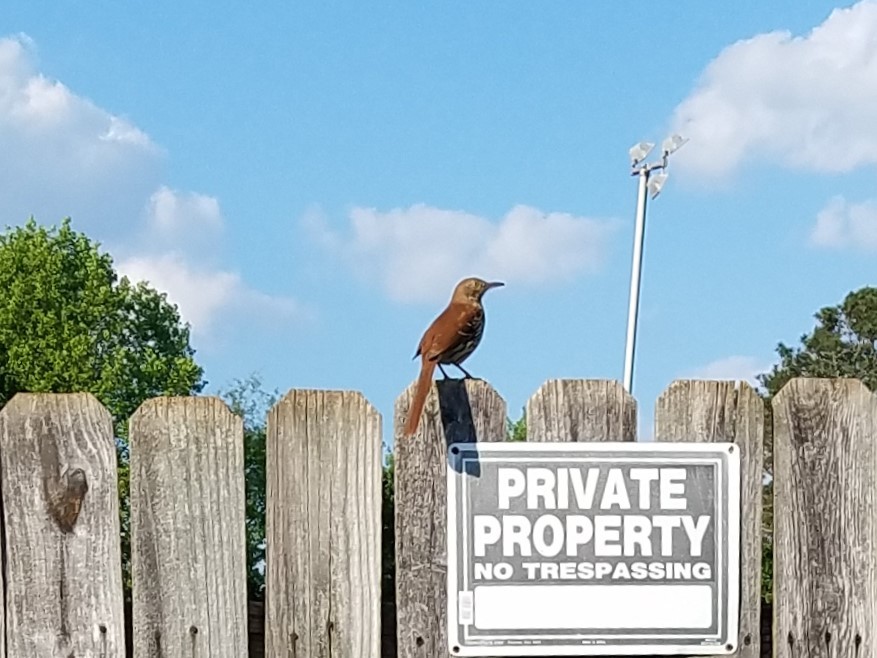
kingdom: Animalia
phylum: Chordata
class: Aves
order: Passeriformes
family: Mimidae
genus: Toxostoma
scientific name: Toxostoma rufum
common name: Brown thrasher
